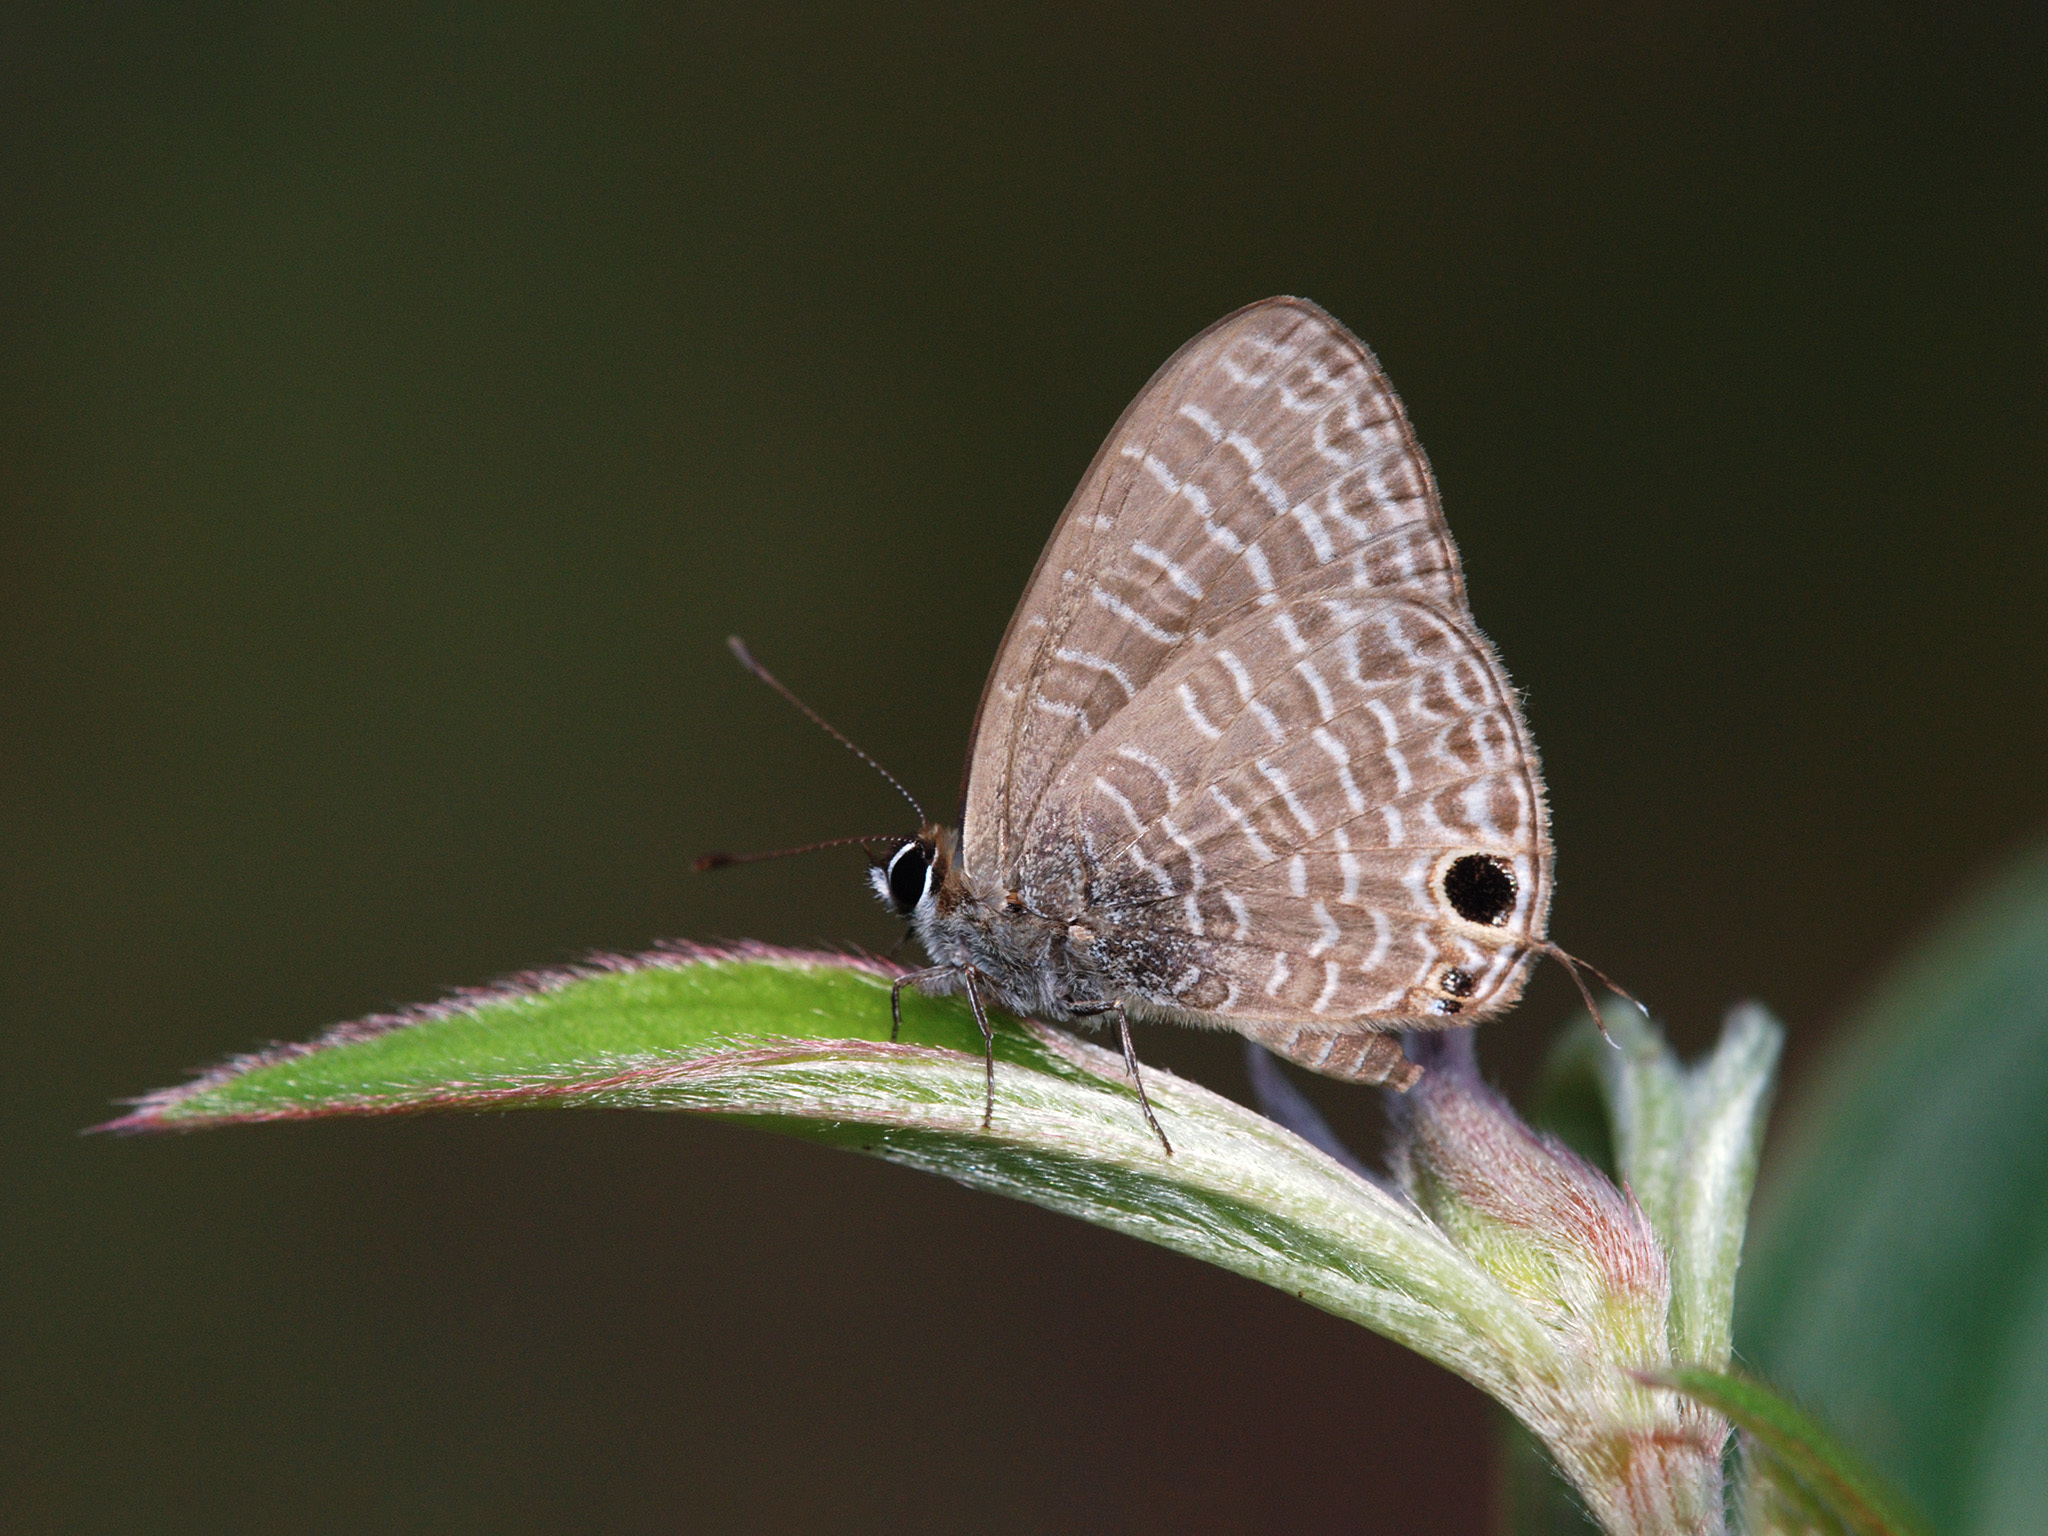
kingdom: Animalia
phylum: Arthropoda
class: Insecta
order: Lepidoptera
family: Lycaenidae
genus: Nacaduba
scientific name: Nacaduba kurava
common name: Transparent 6-line blue
